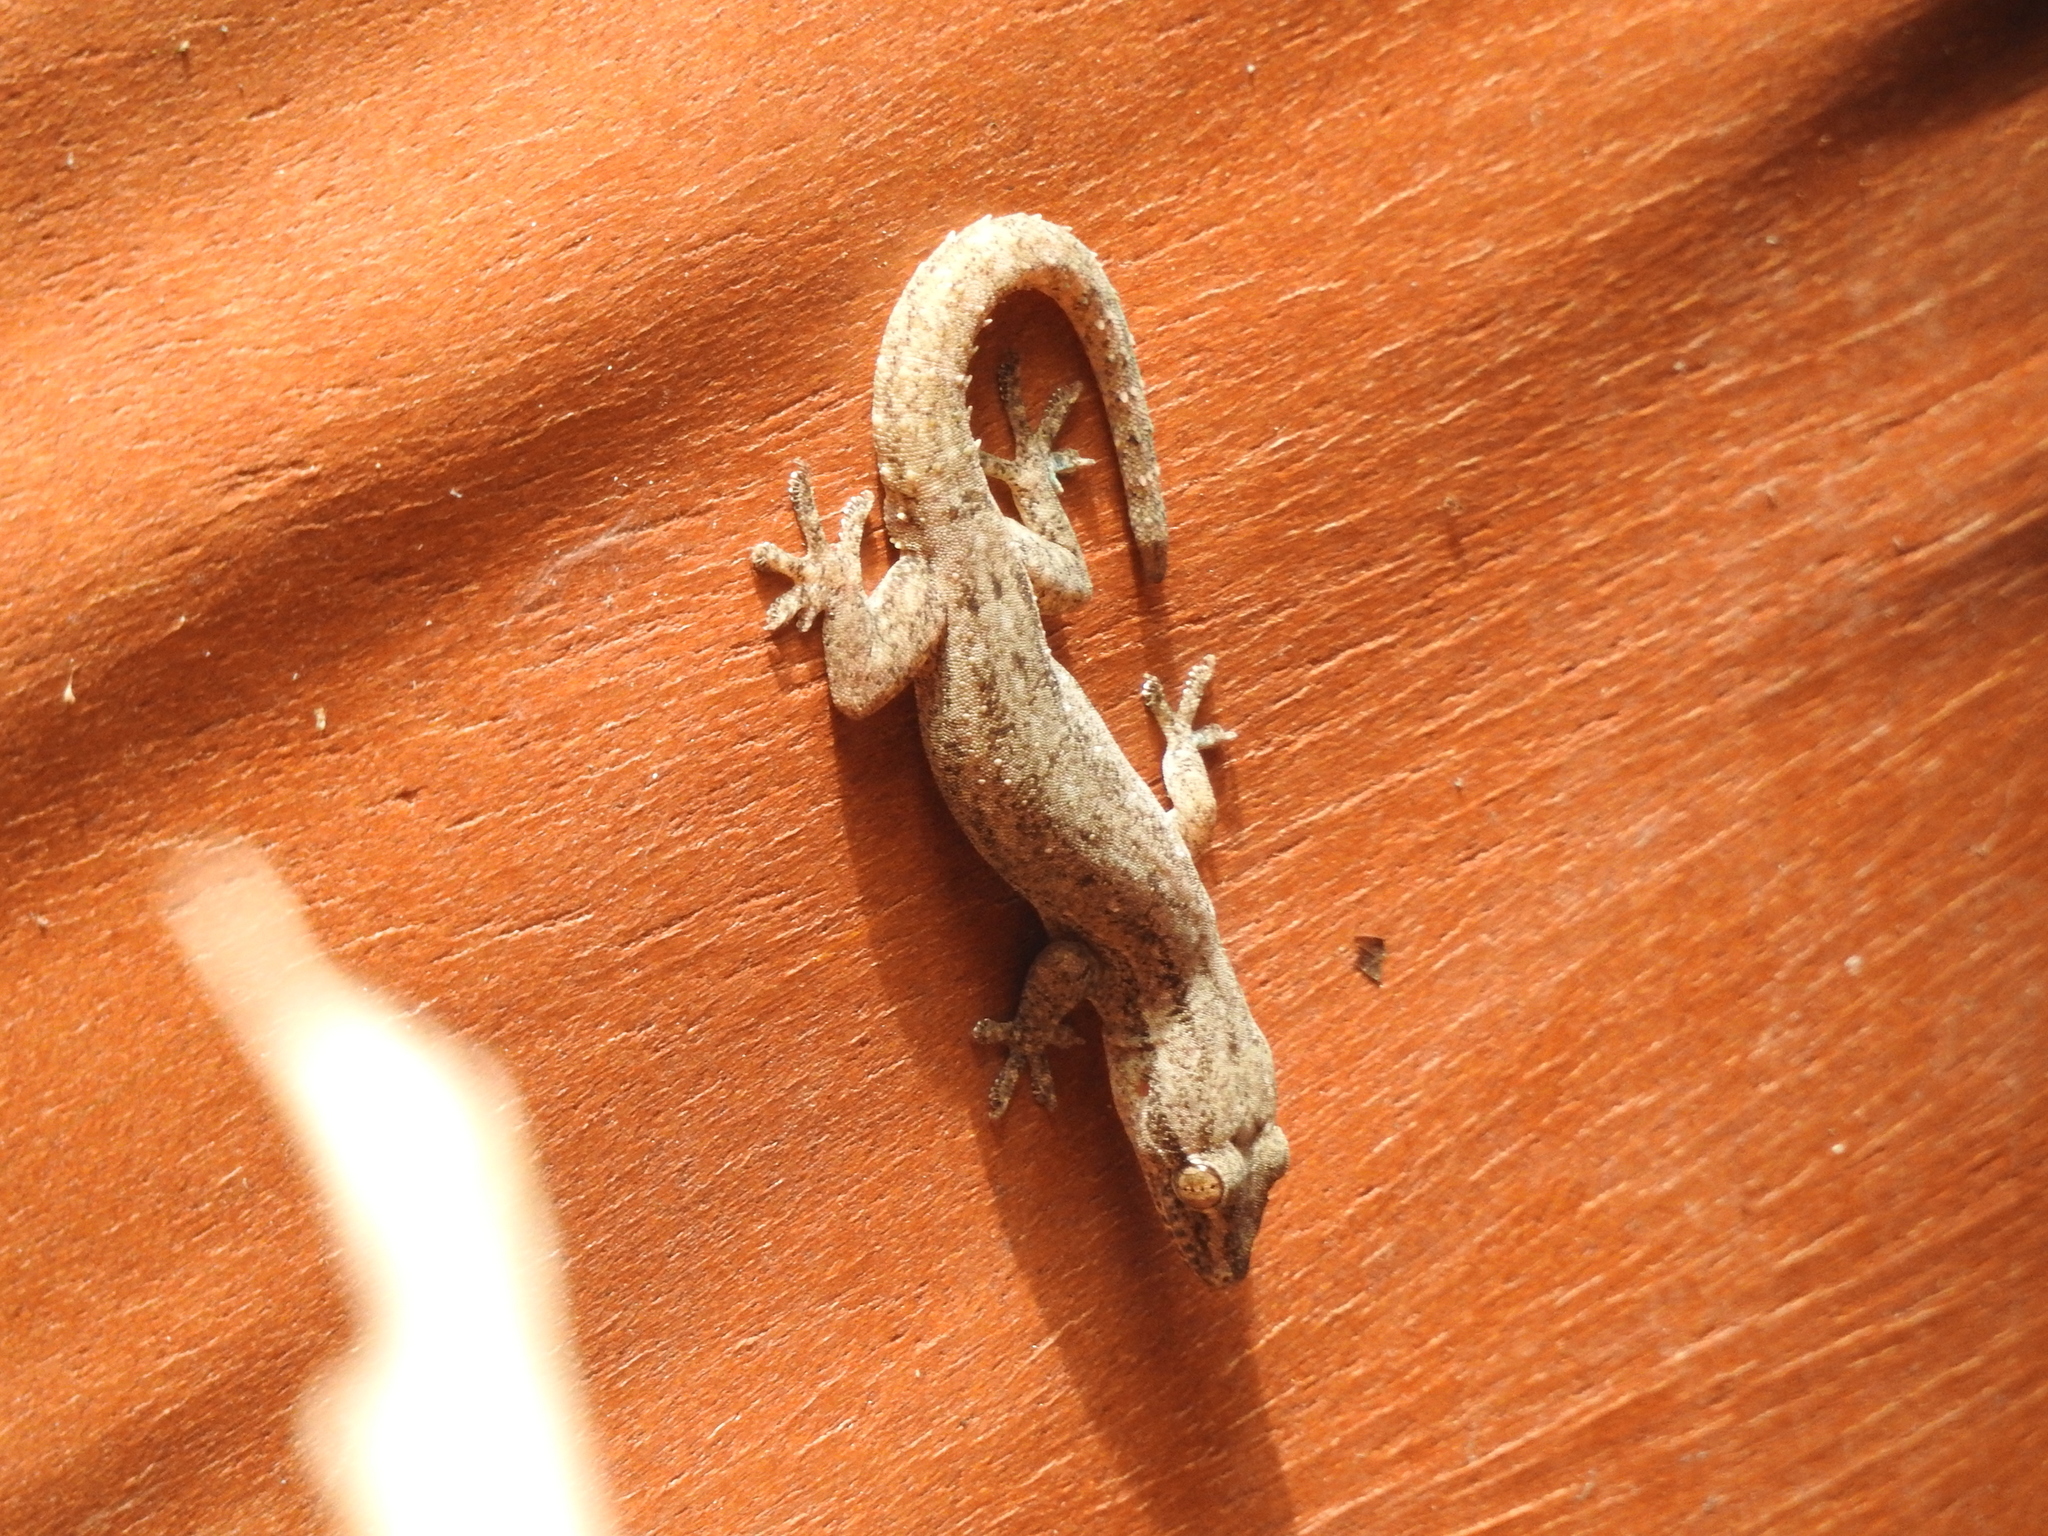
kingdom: Animalia
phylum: Chordata
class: Squamata
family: Gekkonidae
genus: Hemidactylus
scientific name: Hemidactylus frenatus
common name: Common house gecko
